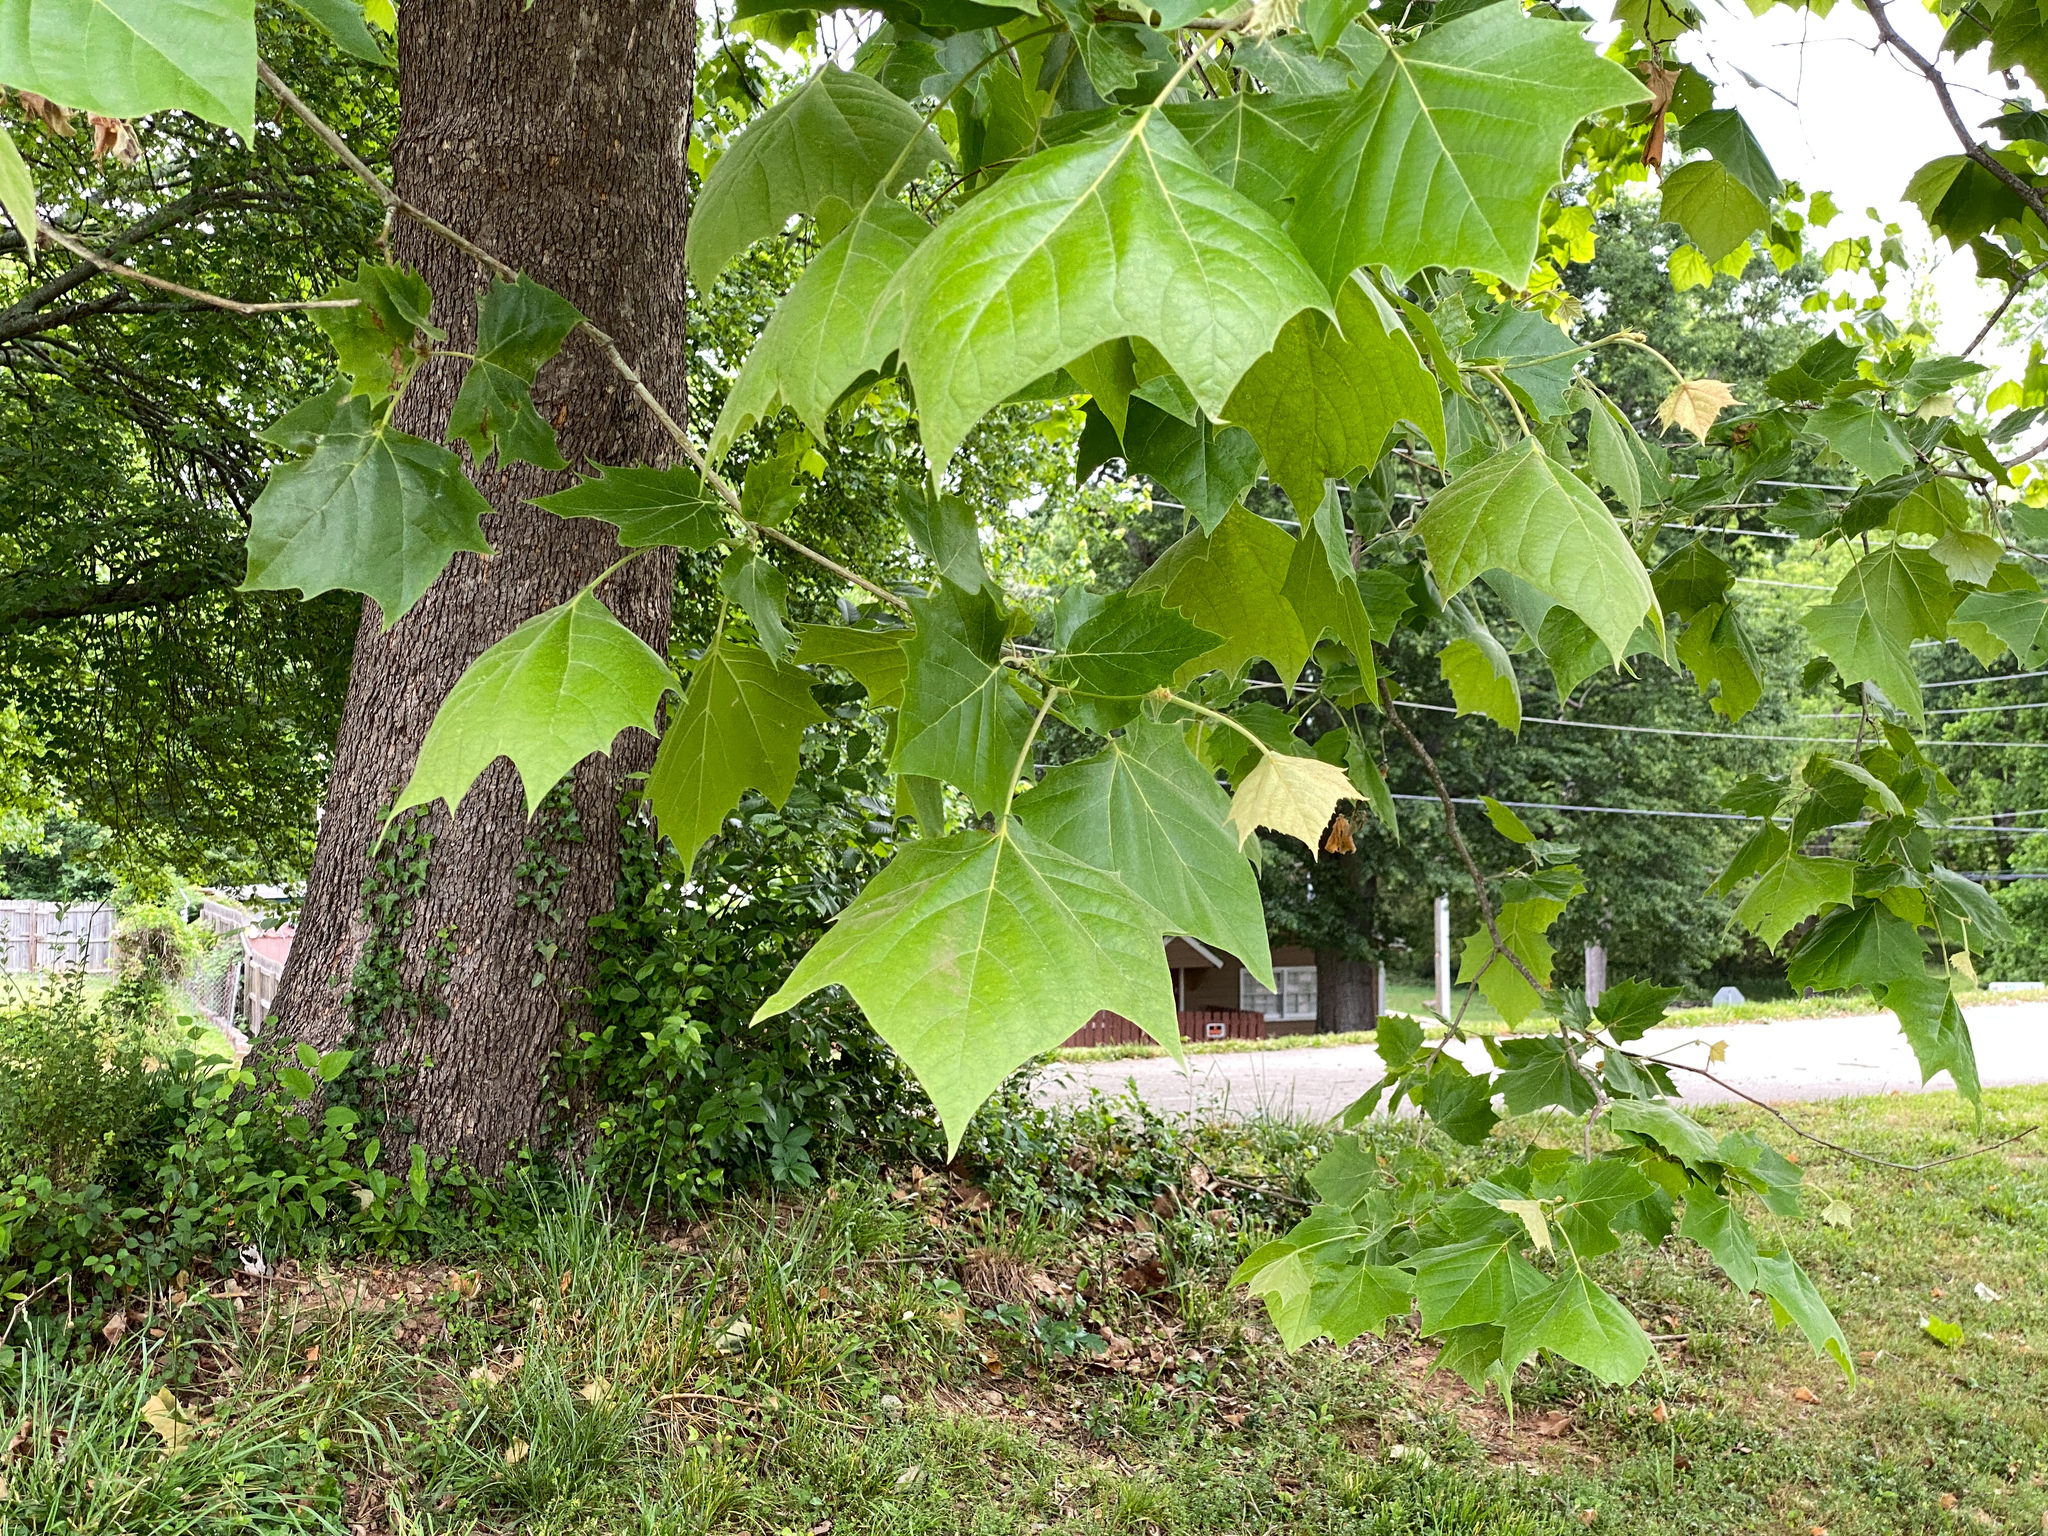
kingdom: Plantae
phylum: Tracheophyta
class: Magnoliopsida
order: Proteales
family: Platanaceae
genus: Platanus
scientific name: Platanus occidentalis
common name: American sycamore
